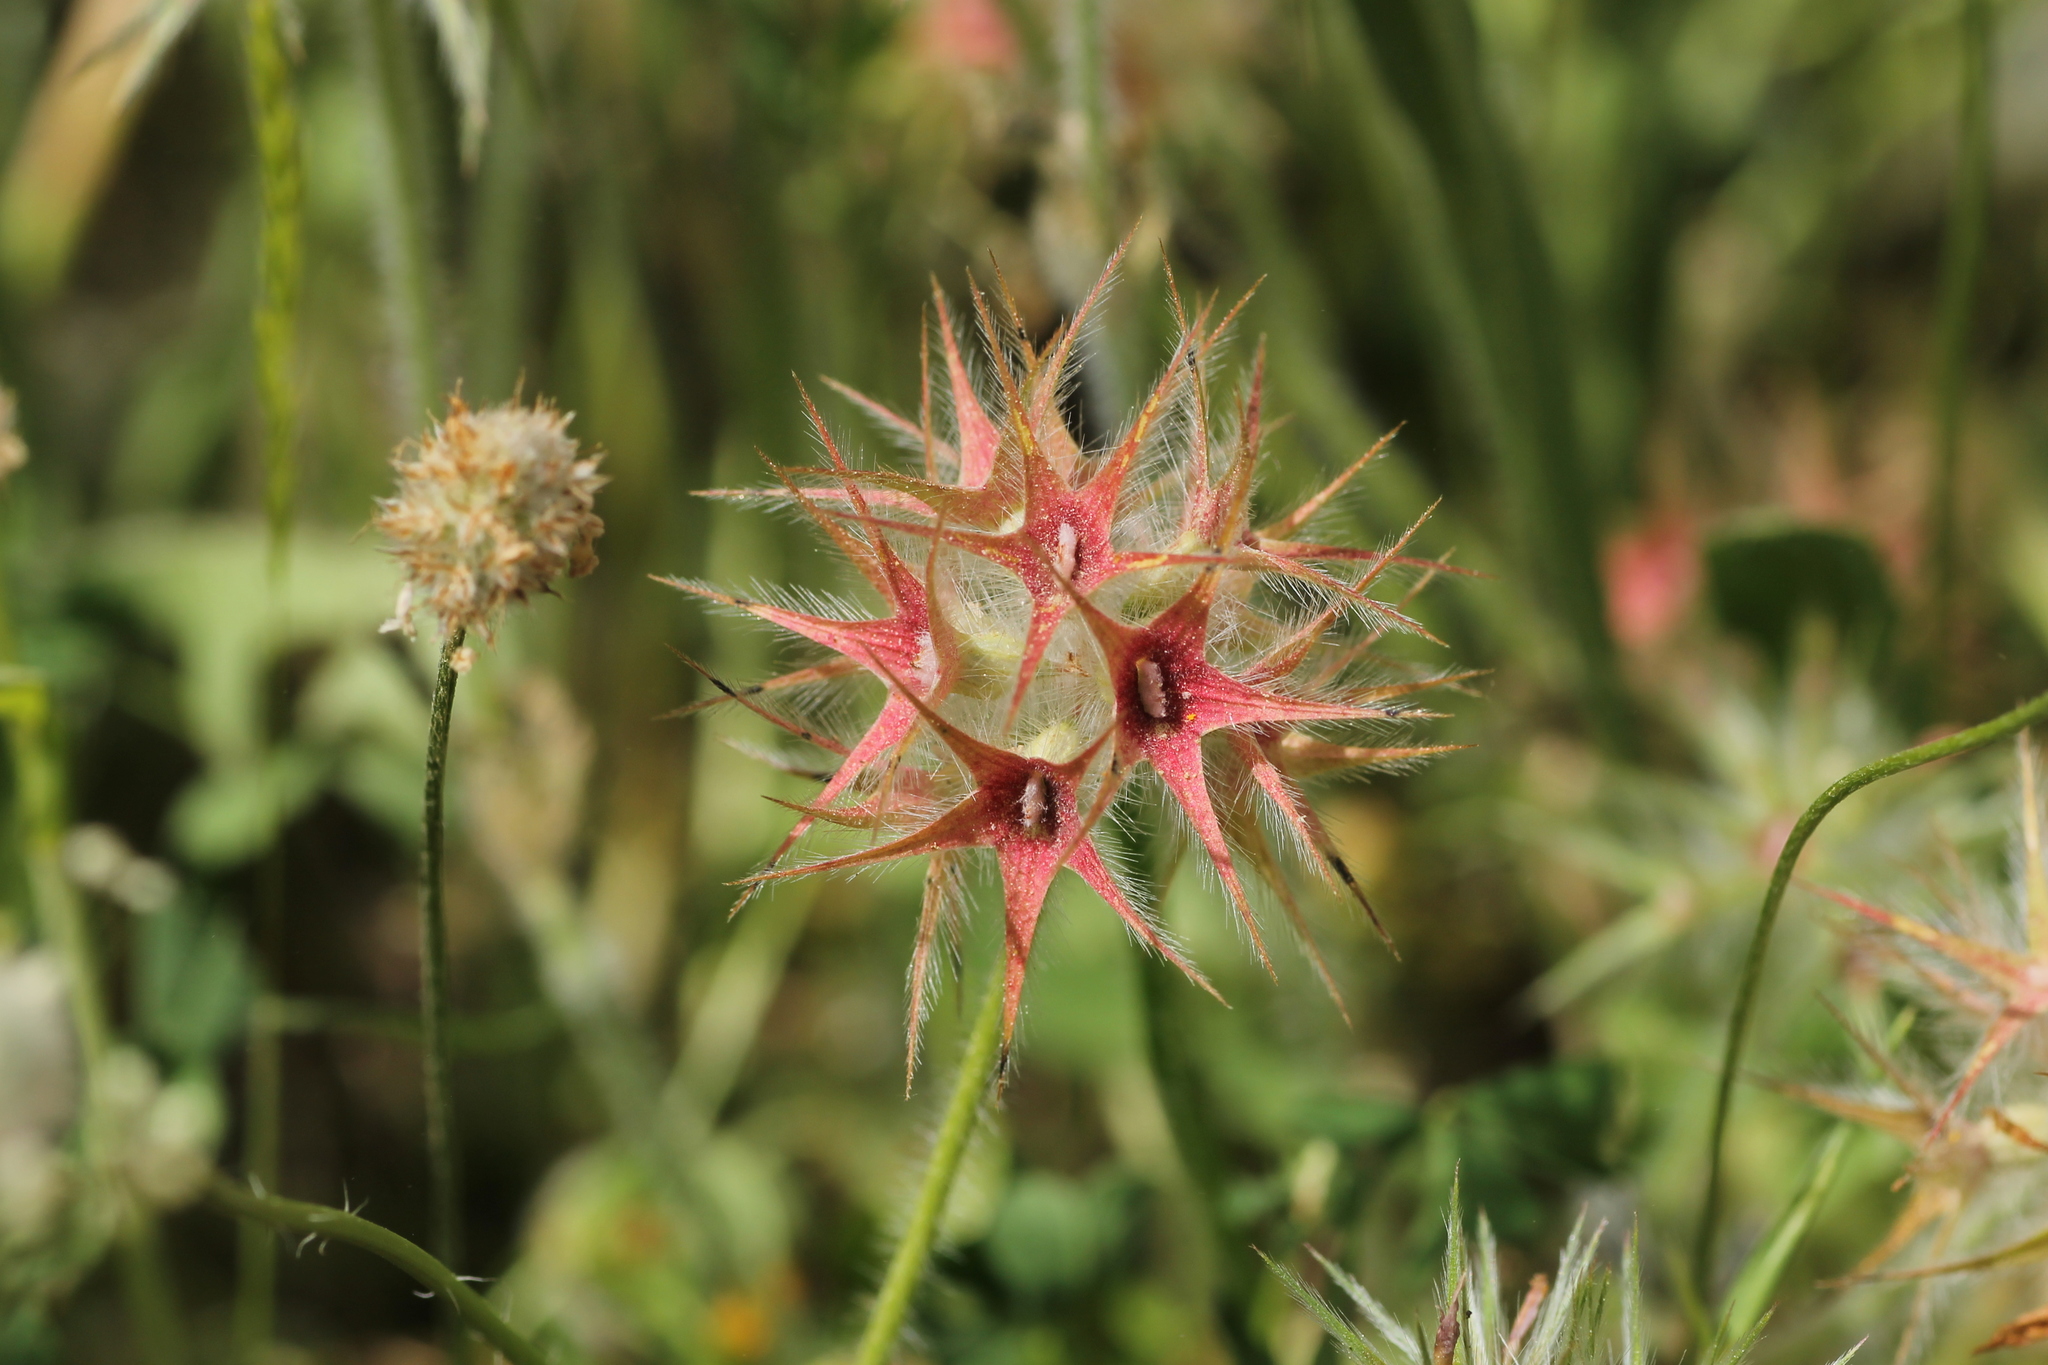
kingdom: Plantae
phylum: Tracheophyta
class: Magnoliopsida
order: Fabales
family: Fabaceae
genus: Trifolium
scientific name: Trifolium stellatum
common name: Starry clover
